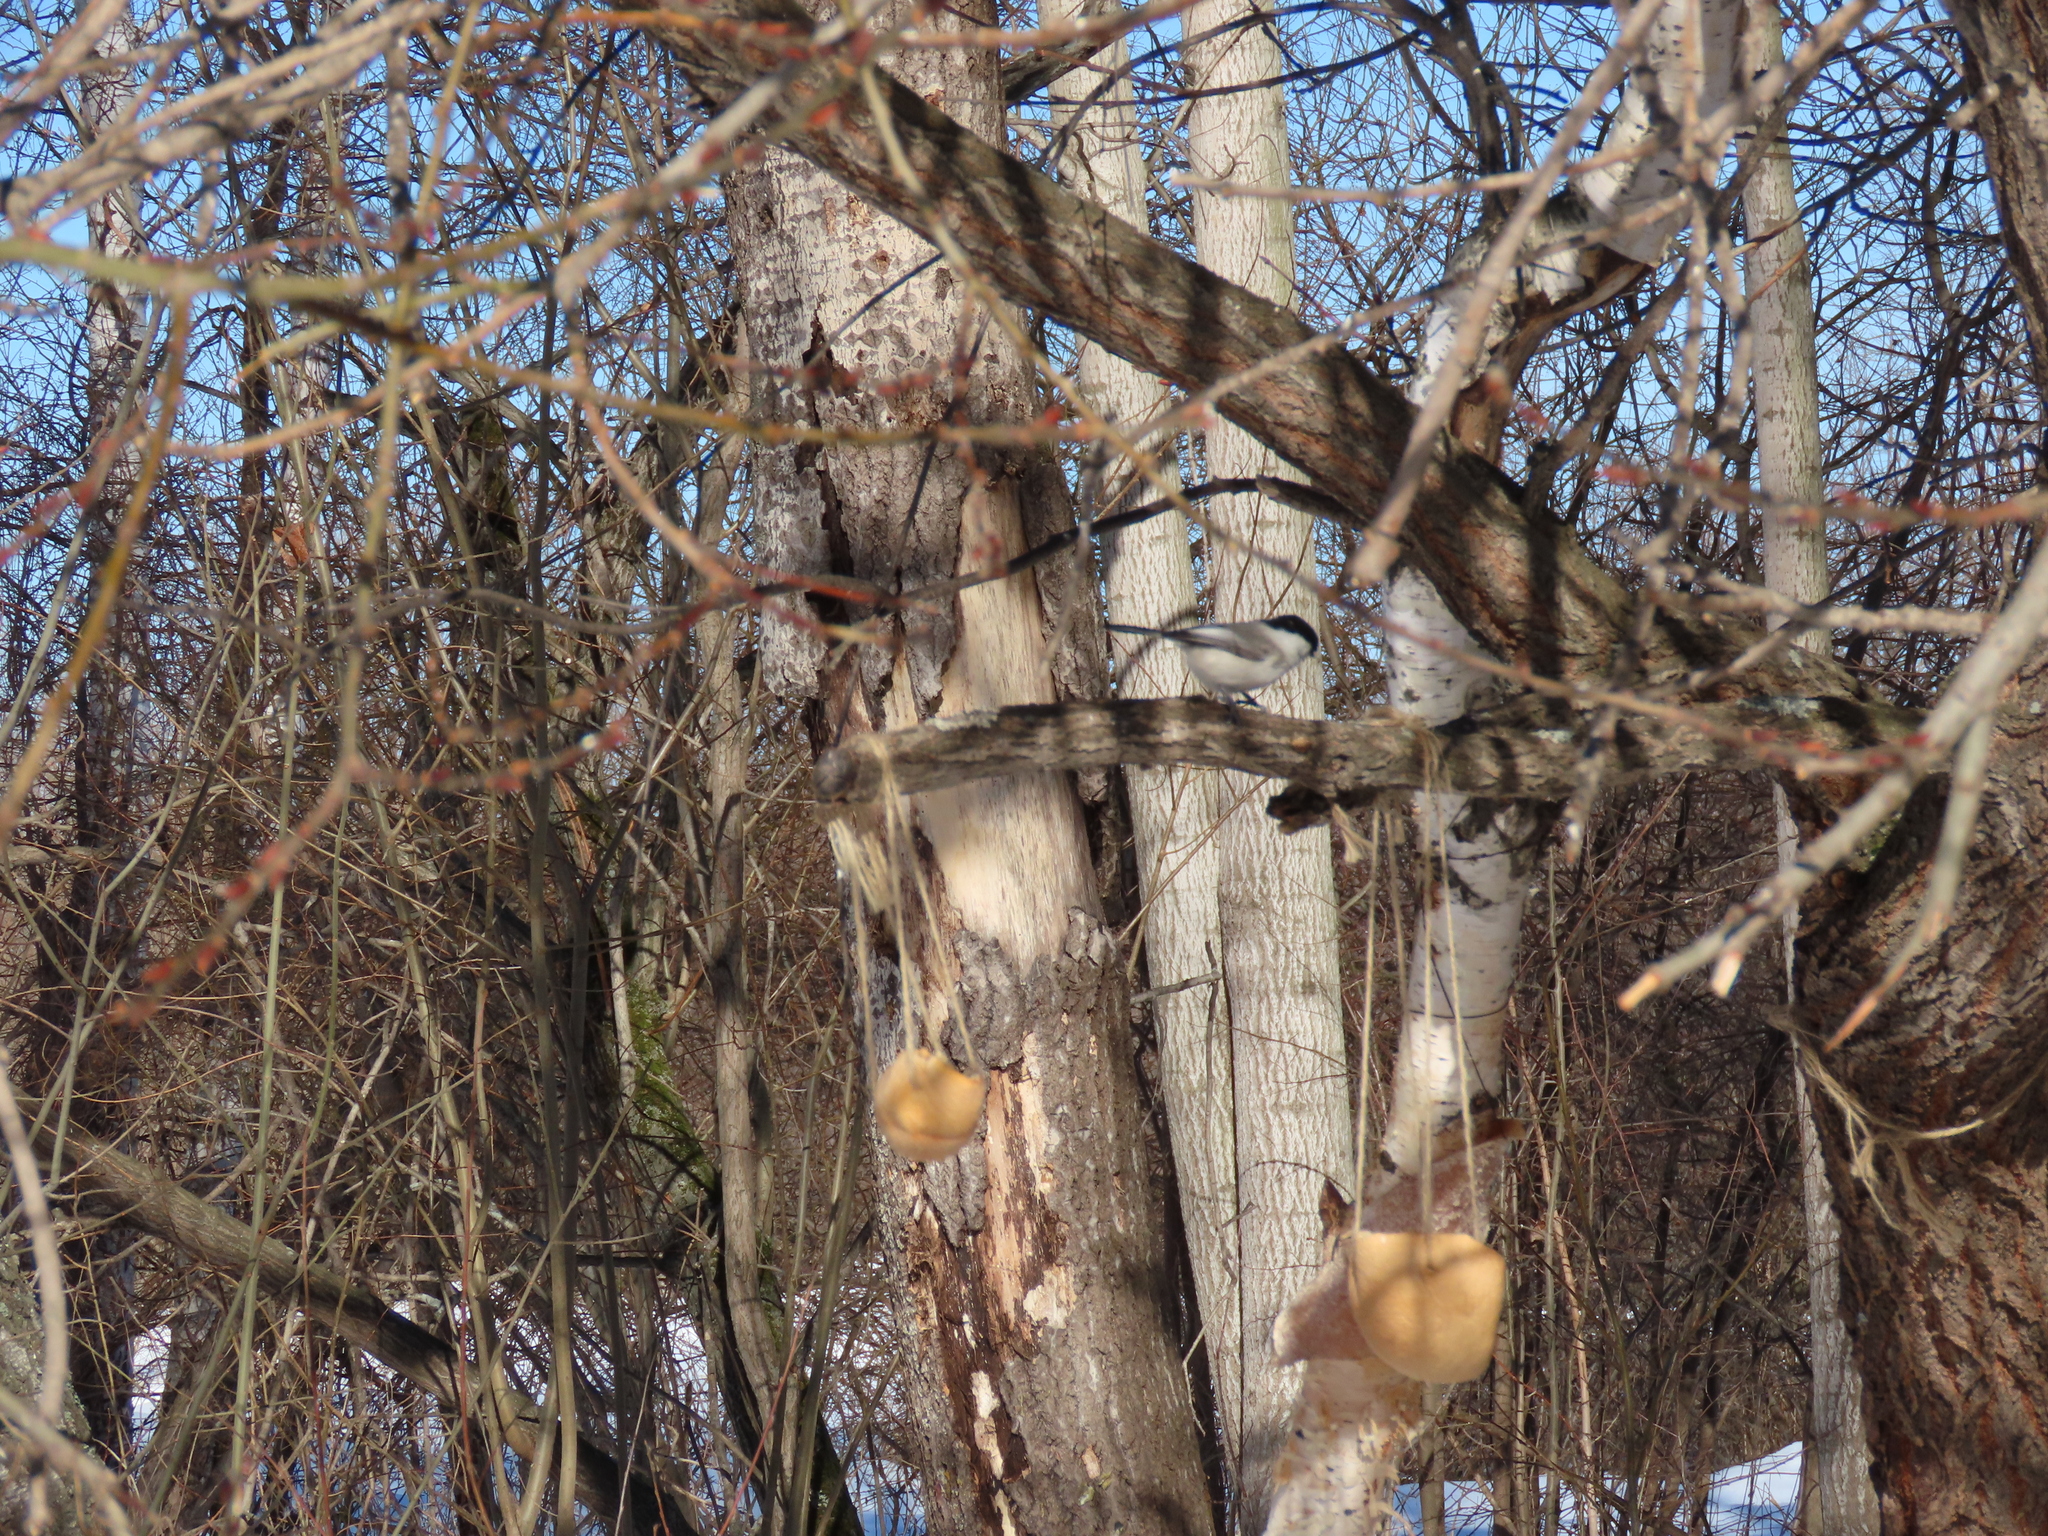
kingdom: Animalia
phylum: Chordata
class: Aves
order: Passeriformes
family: Paridae
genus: Poecile
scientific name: Poecile montanus
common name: Willow tit
